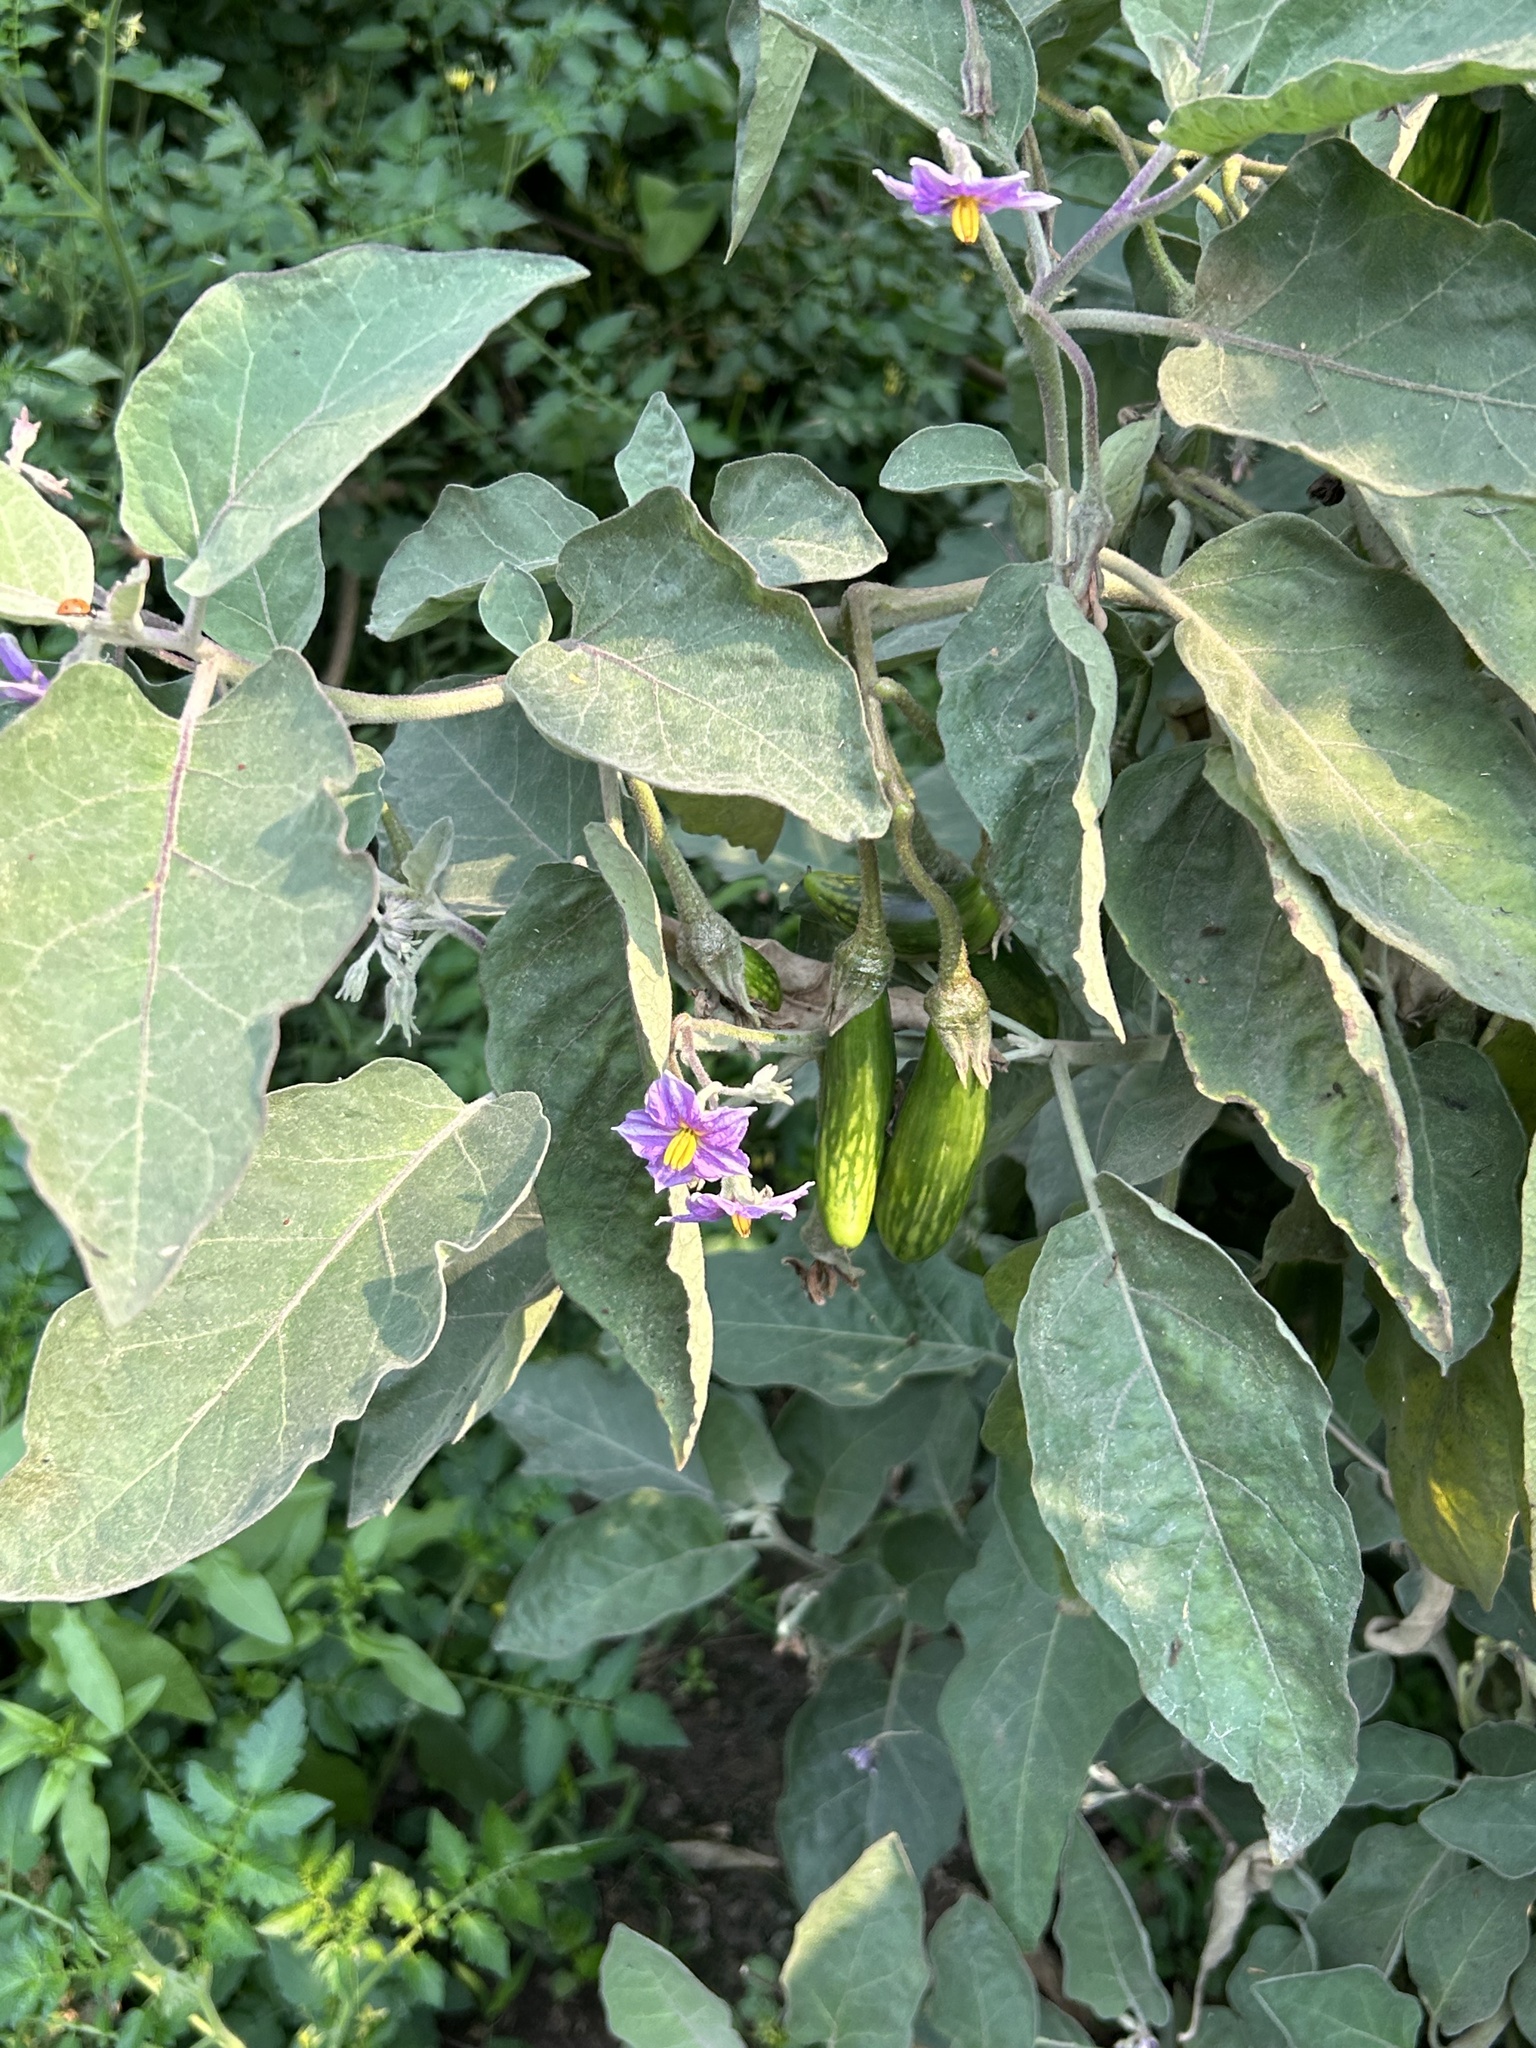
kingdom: Plantae
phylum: Tracheophyta
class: Magnoliopsida
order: Solanales
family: Solanaceae
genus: Solanum
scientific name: Solanum melongena
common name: Eggplant
